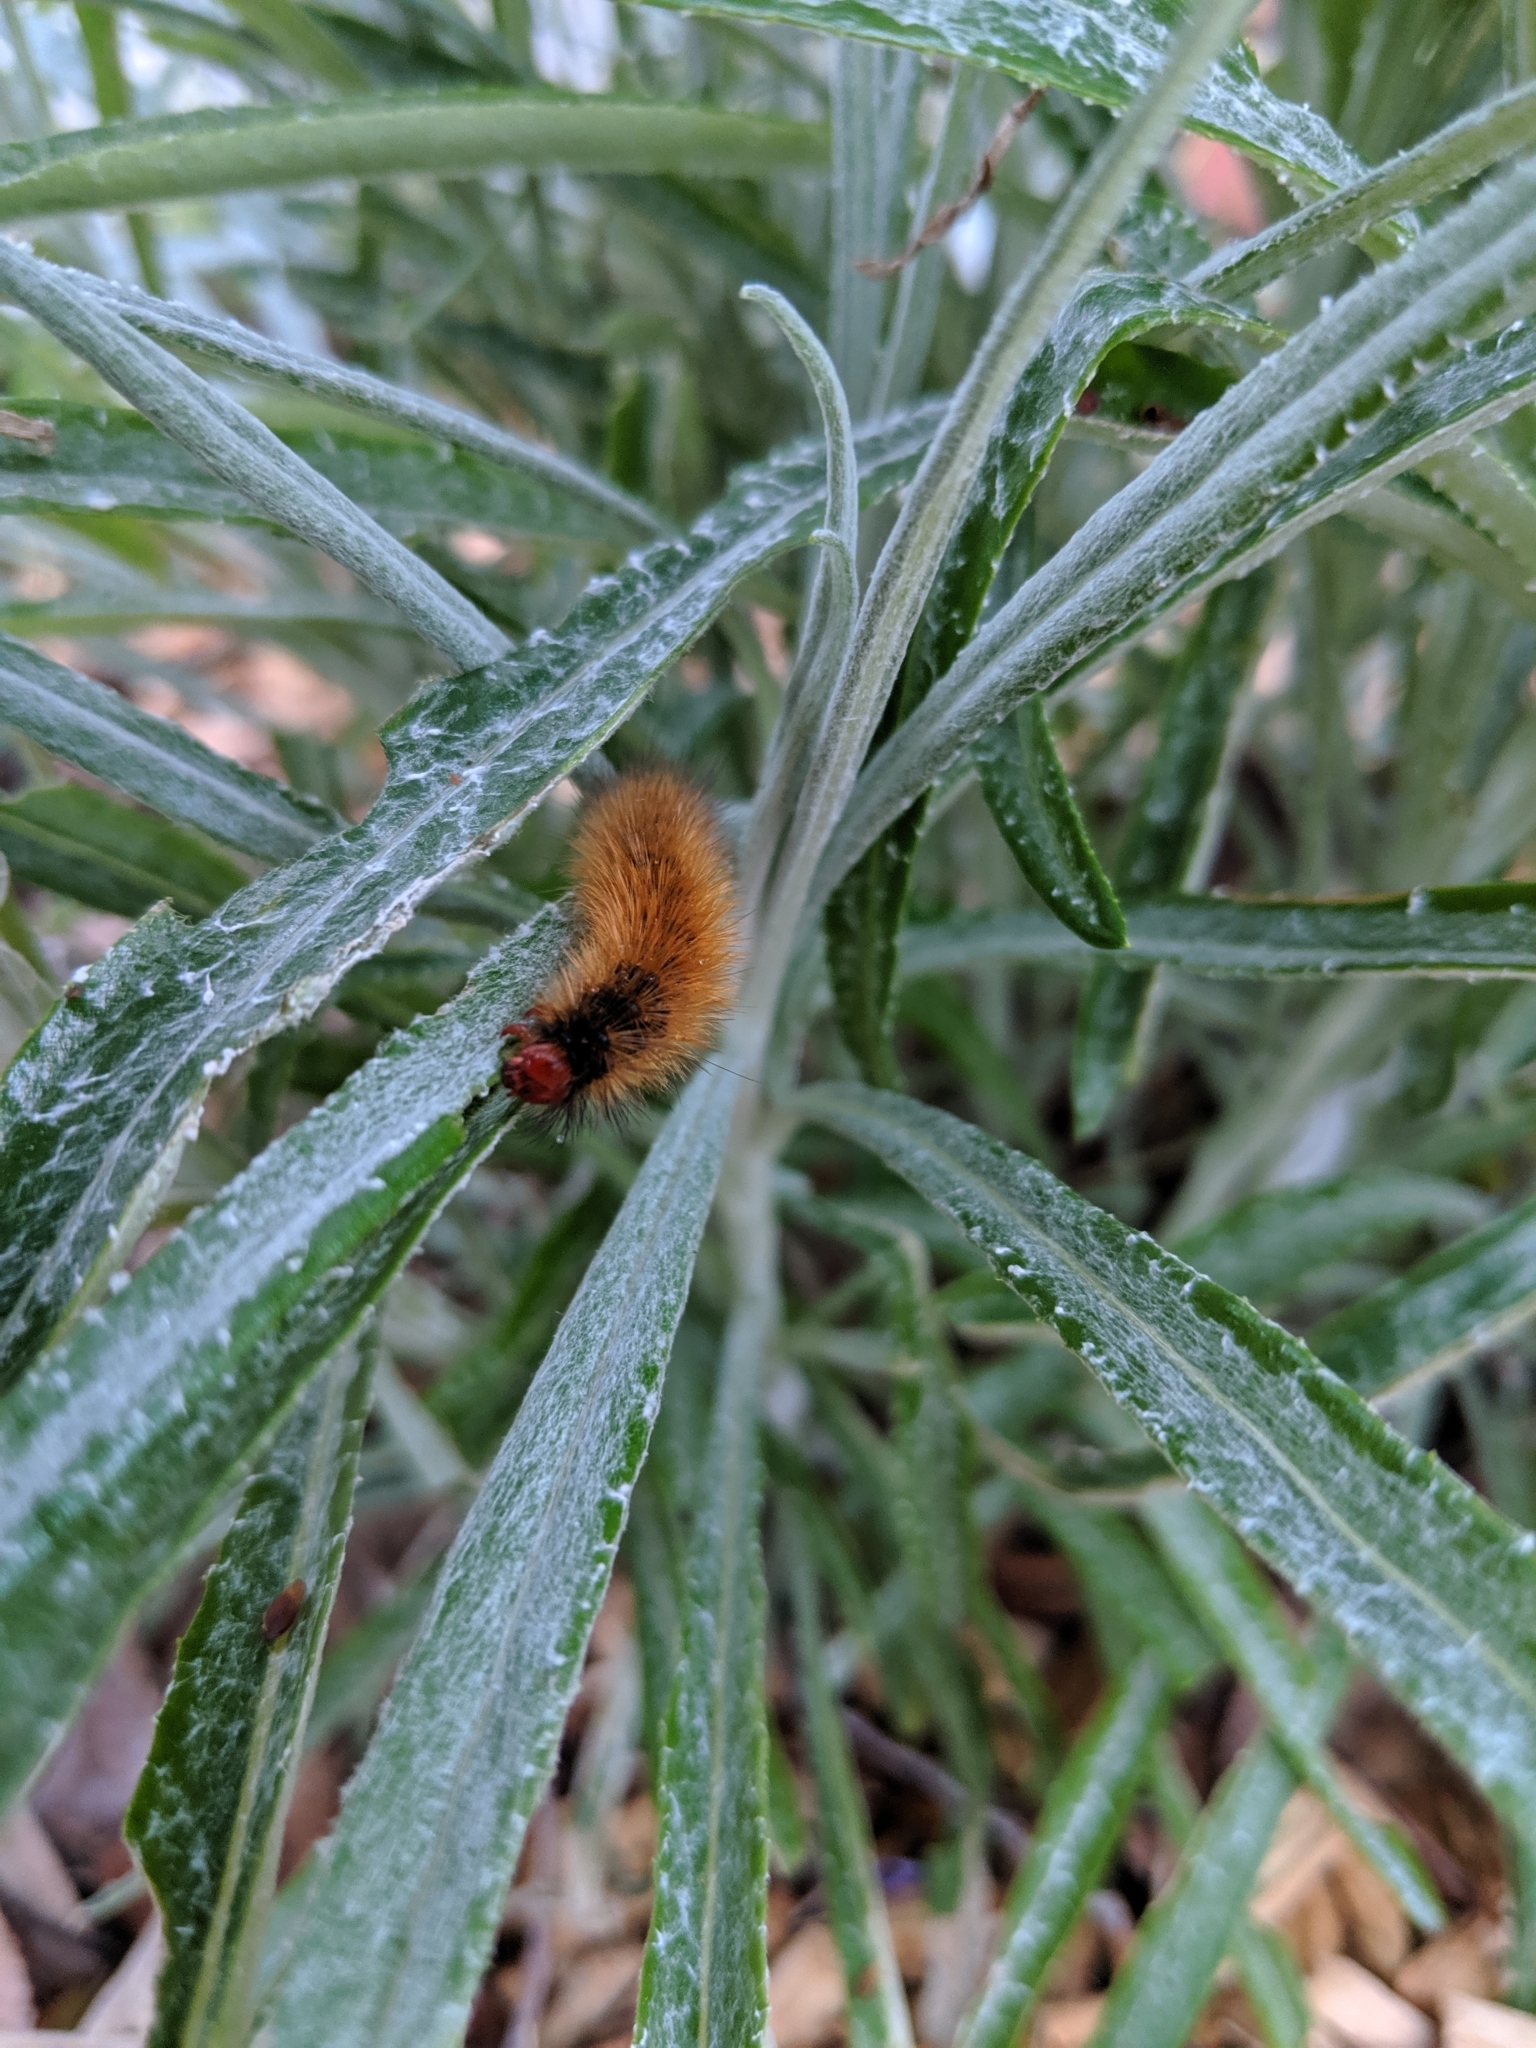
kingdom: Animalia
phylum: Arthropoda
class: Insecta
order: Lepidoptera
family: Erebidae
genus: Ardices
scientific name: Ardices glatignyi
